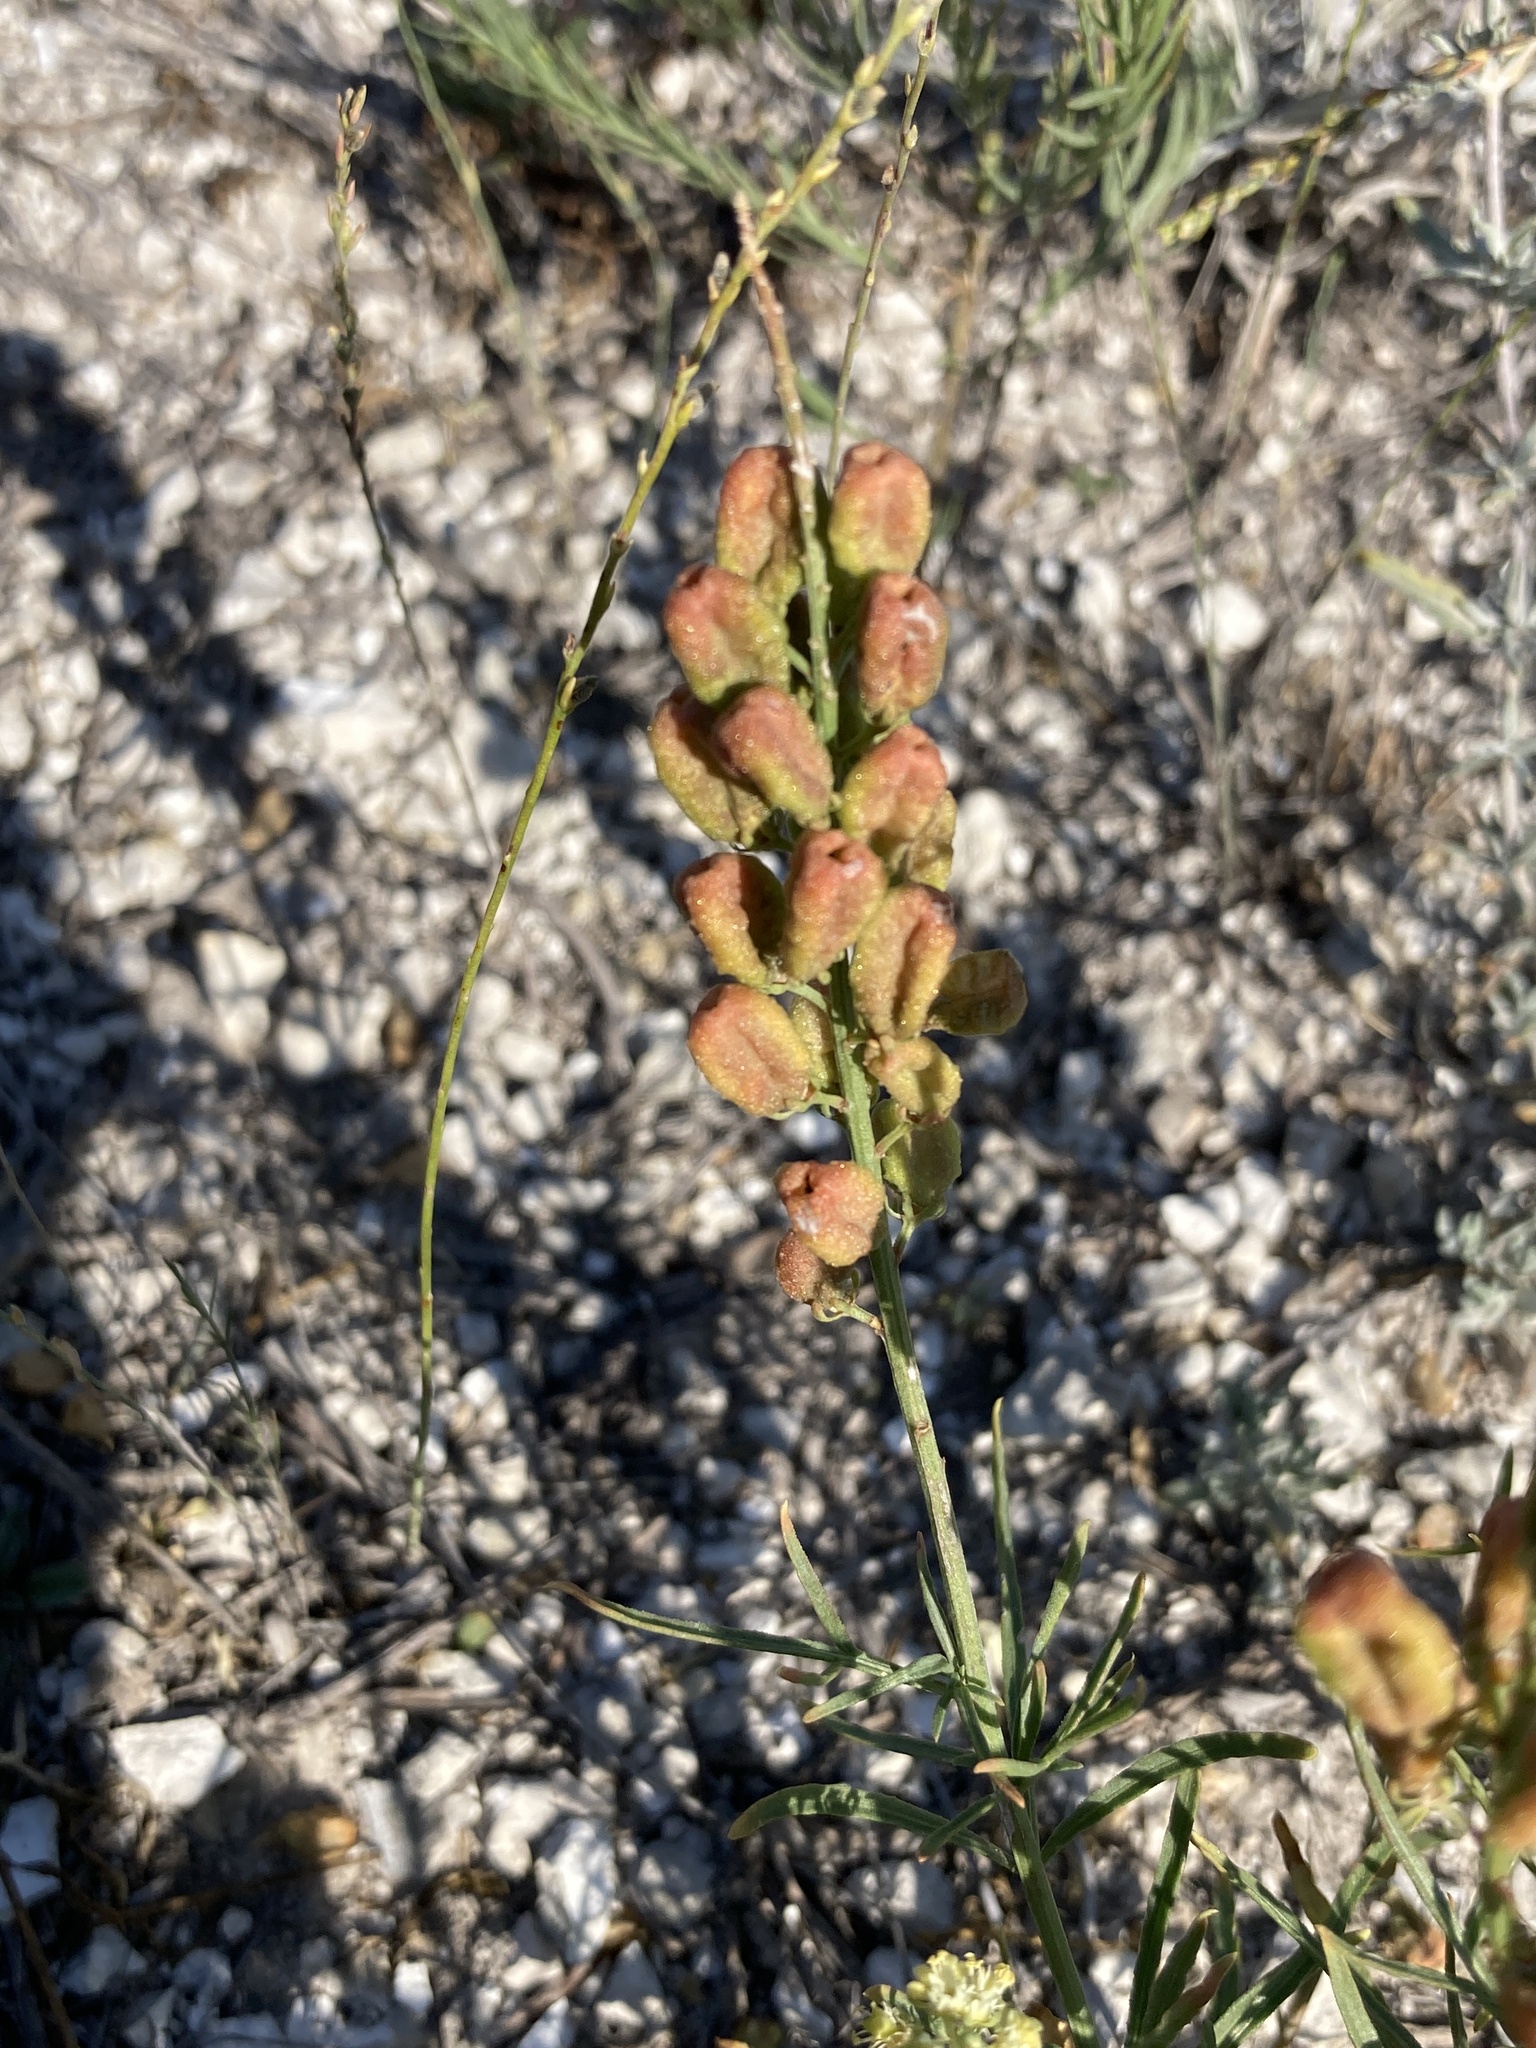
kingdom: Plantae
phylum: Tracheophyta
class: Magnoliopsida
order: Brassicales
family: Resedaceae
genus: Reseda
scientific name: Reseda lutea
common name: Wild mignonette
